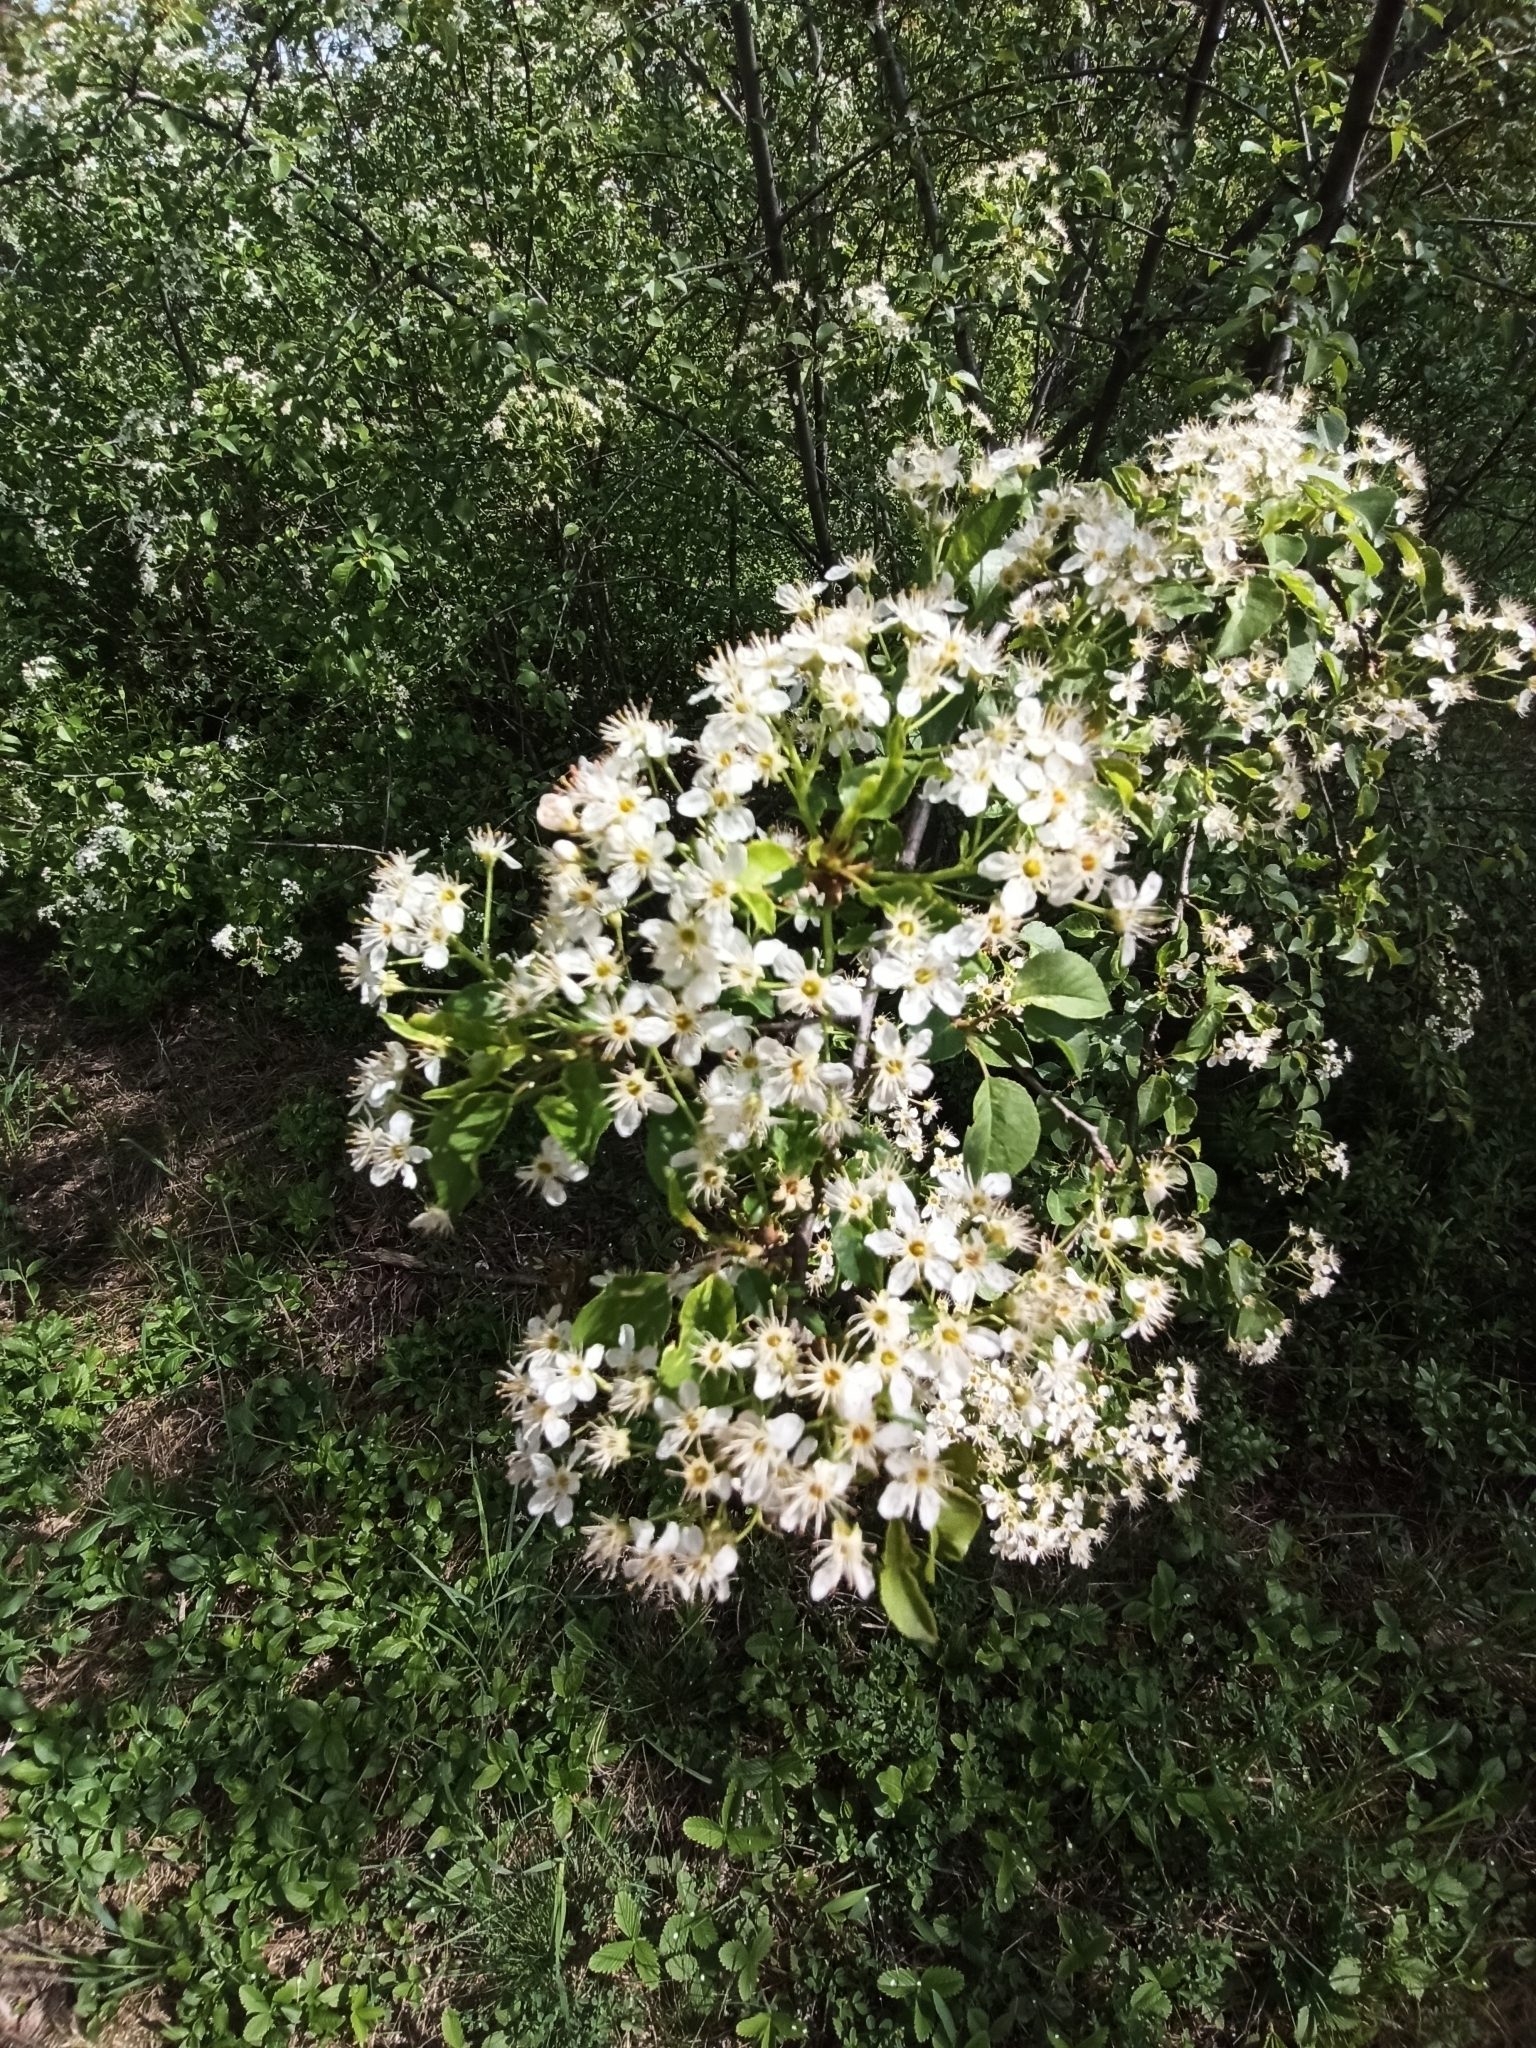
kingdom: Plantae
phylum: Tracheophyta
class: Magnoliopsida
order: Rosales
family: Rosaceae
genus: Prunus
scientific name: Prunus mahaleb
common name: Mahaleb cherry
